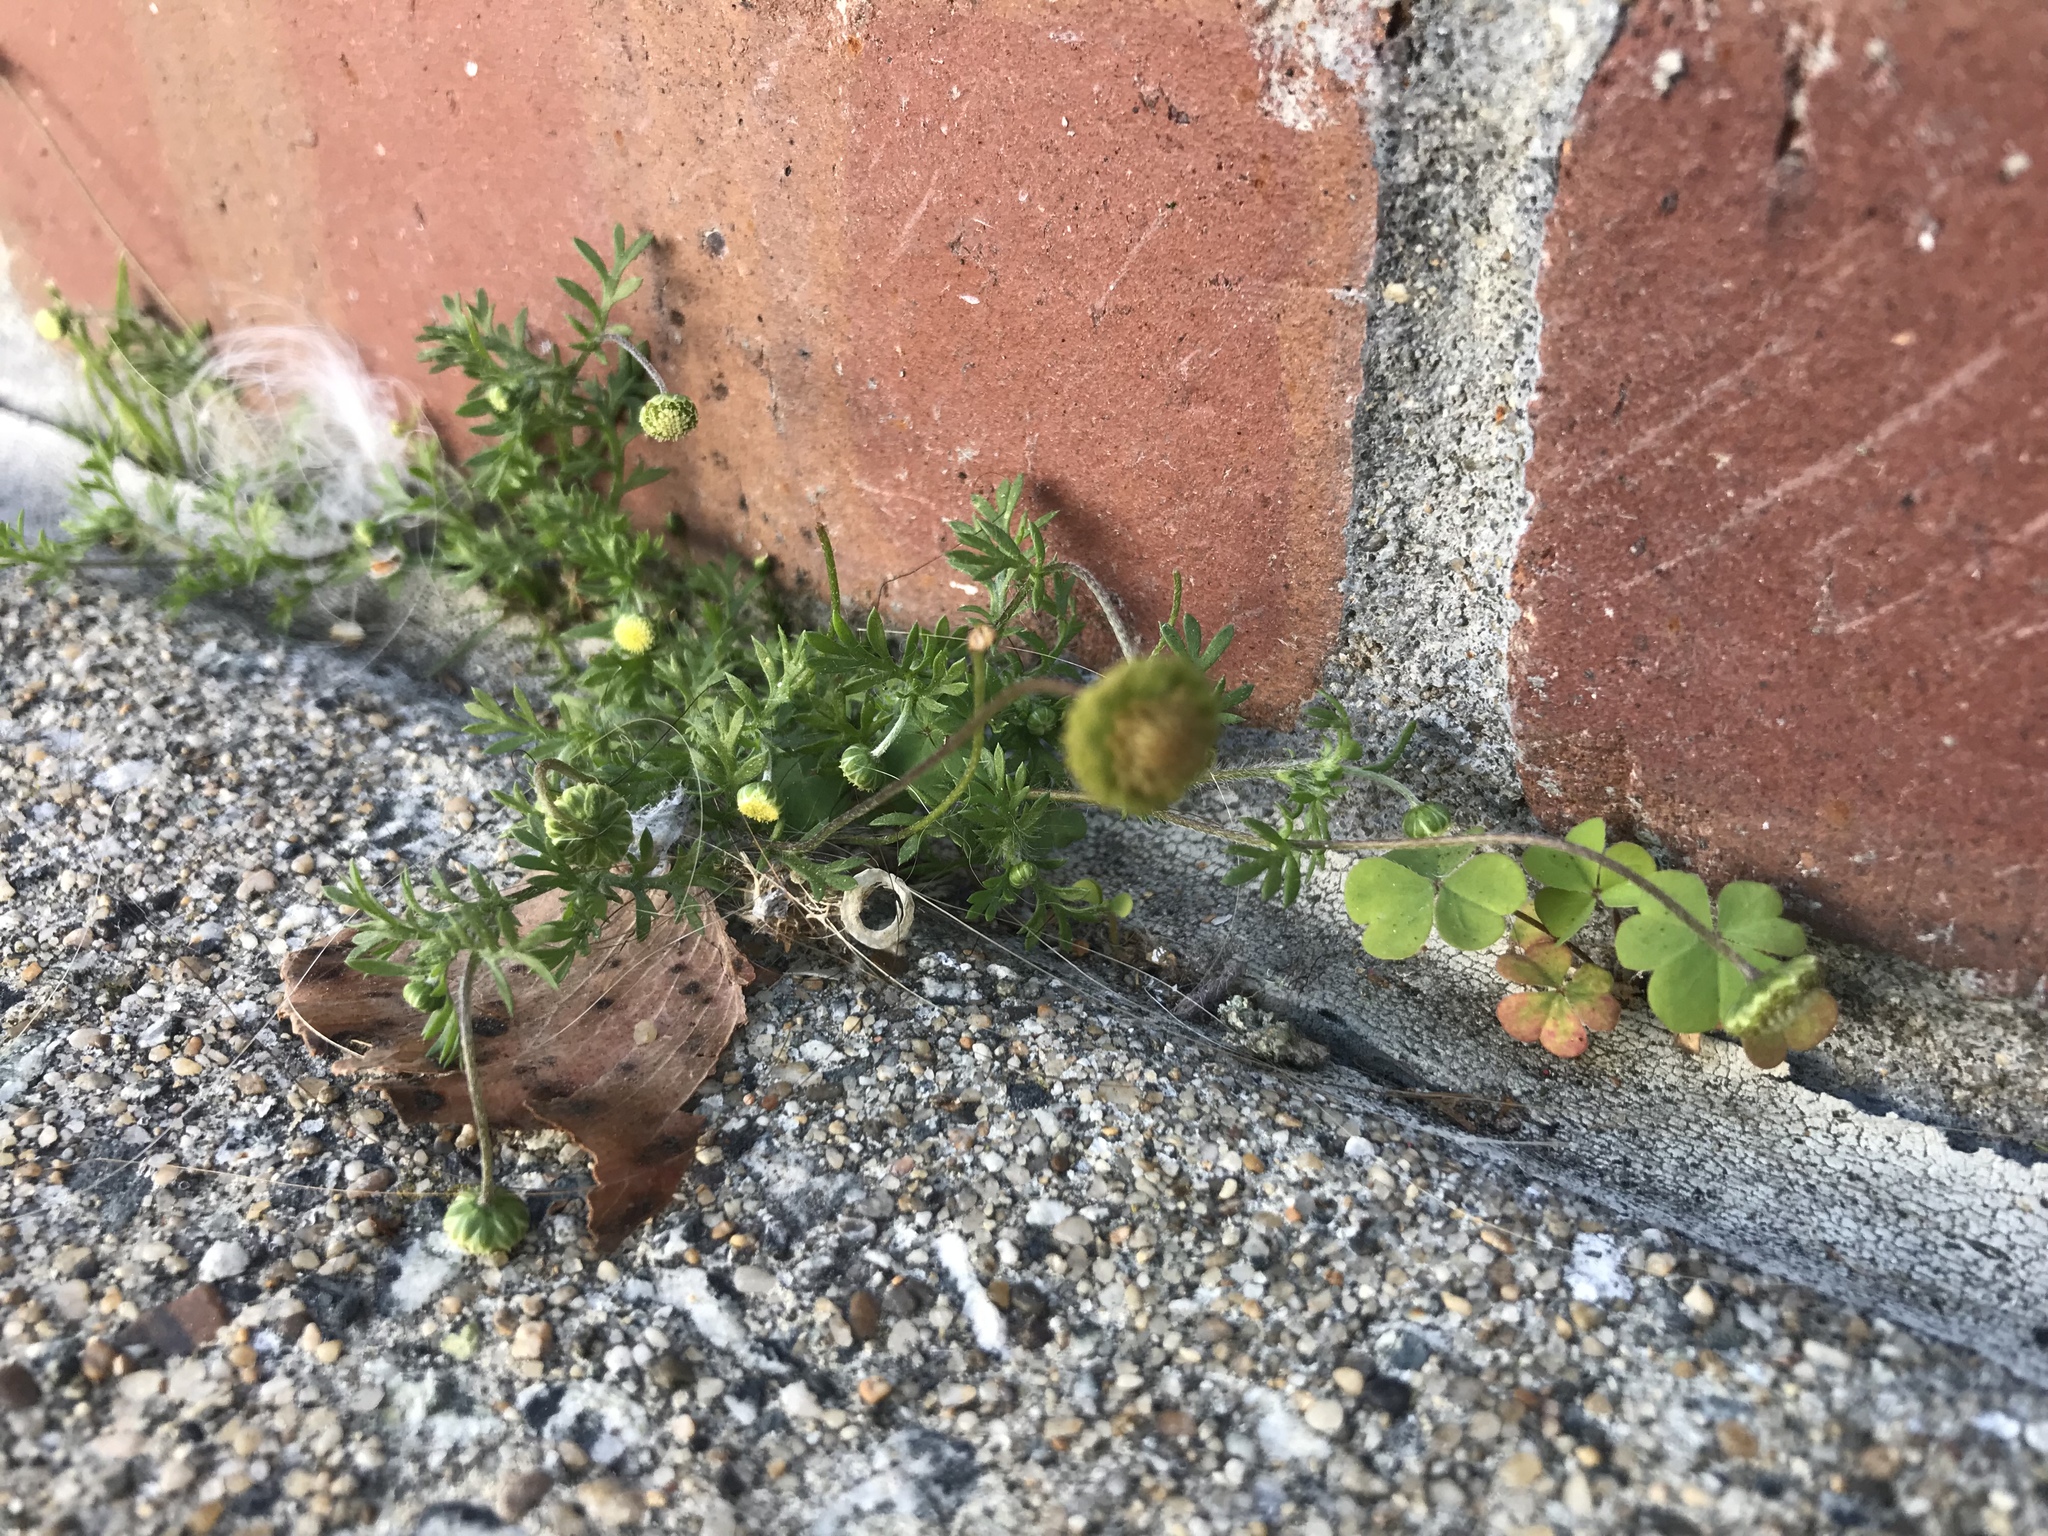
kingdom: Plantae
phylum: Tracheophyta
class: Magnoliopsida
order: Asterales
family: Asteraceae
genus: Cotula
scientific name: Cotula australis
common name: Australian waterbuttons
